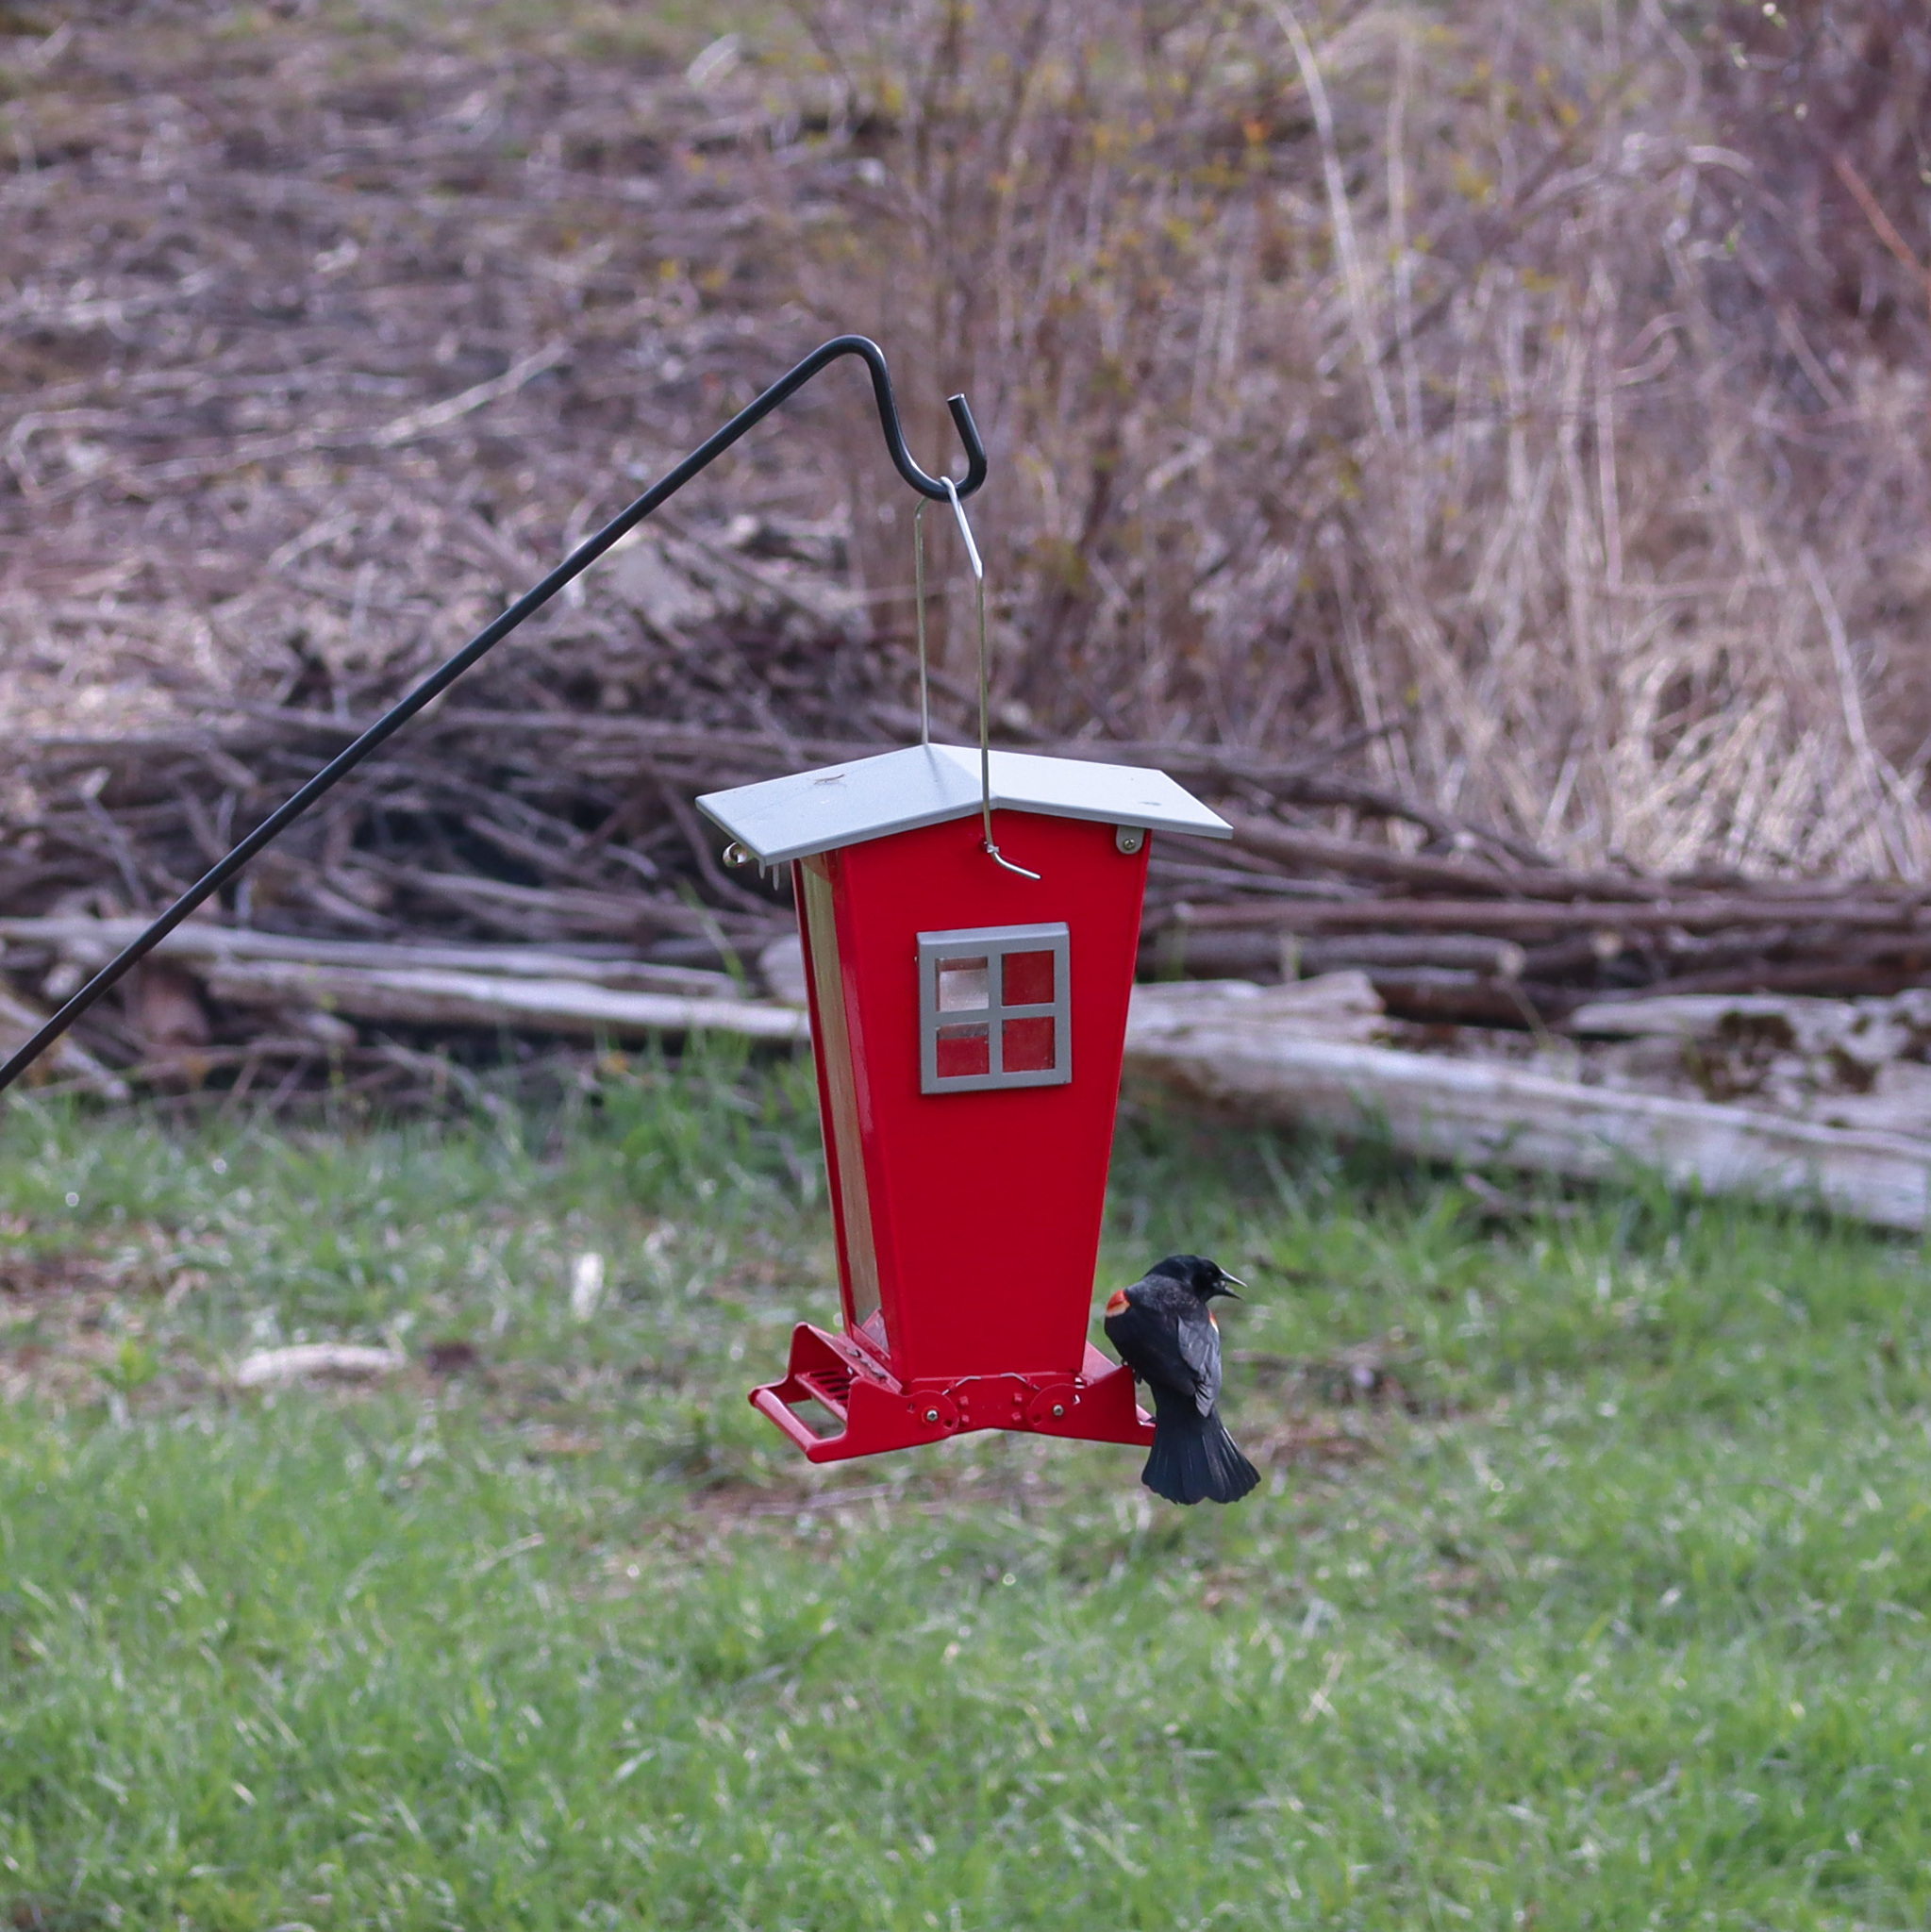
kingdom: Animalia
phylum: Chordata
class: Aves
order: Passeriformes
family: Icteridae
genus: Agelaius
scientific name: Agelaius phoeniceus
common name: Red-winged blackbird
